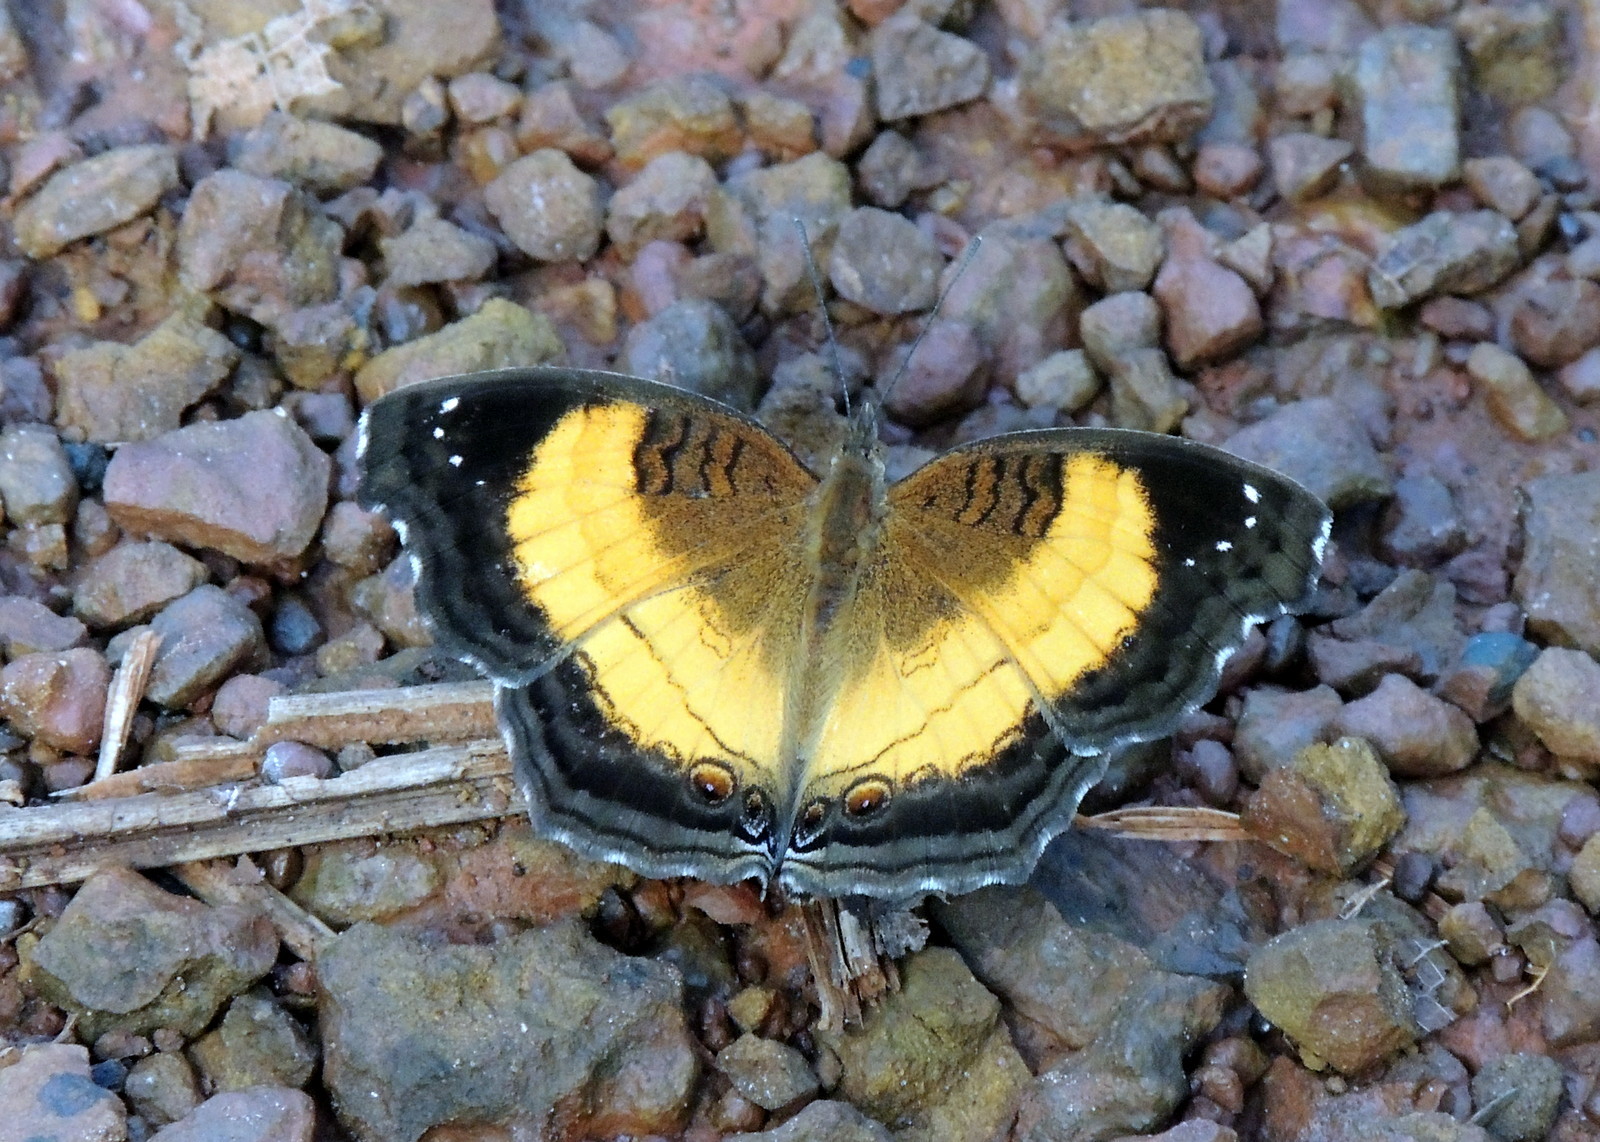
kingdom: Animalia
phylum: Arthropoda
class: Insecta
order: Lepidoptera
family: Nymphalidae
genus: Junonia
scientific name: Junonia terea
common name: Soldier pansy
